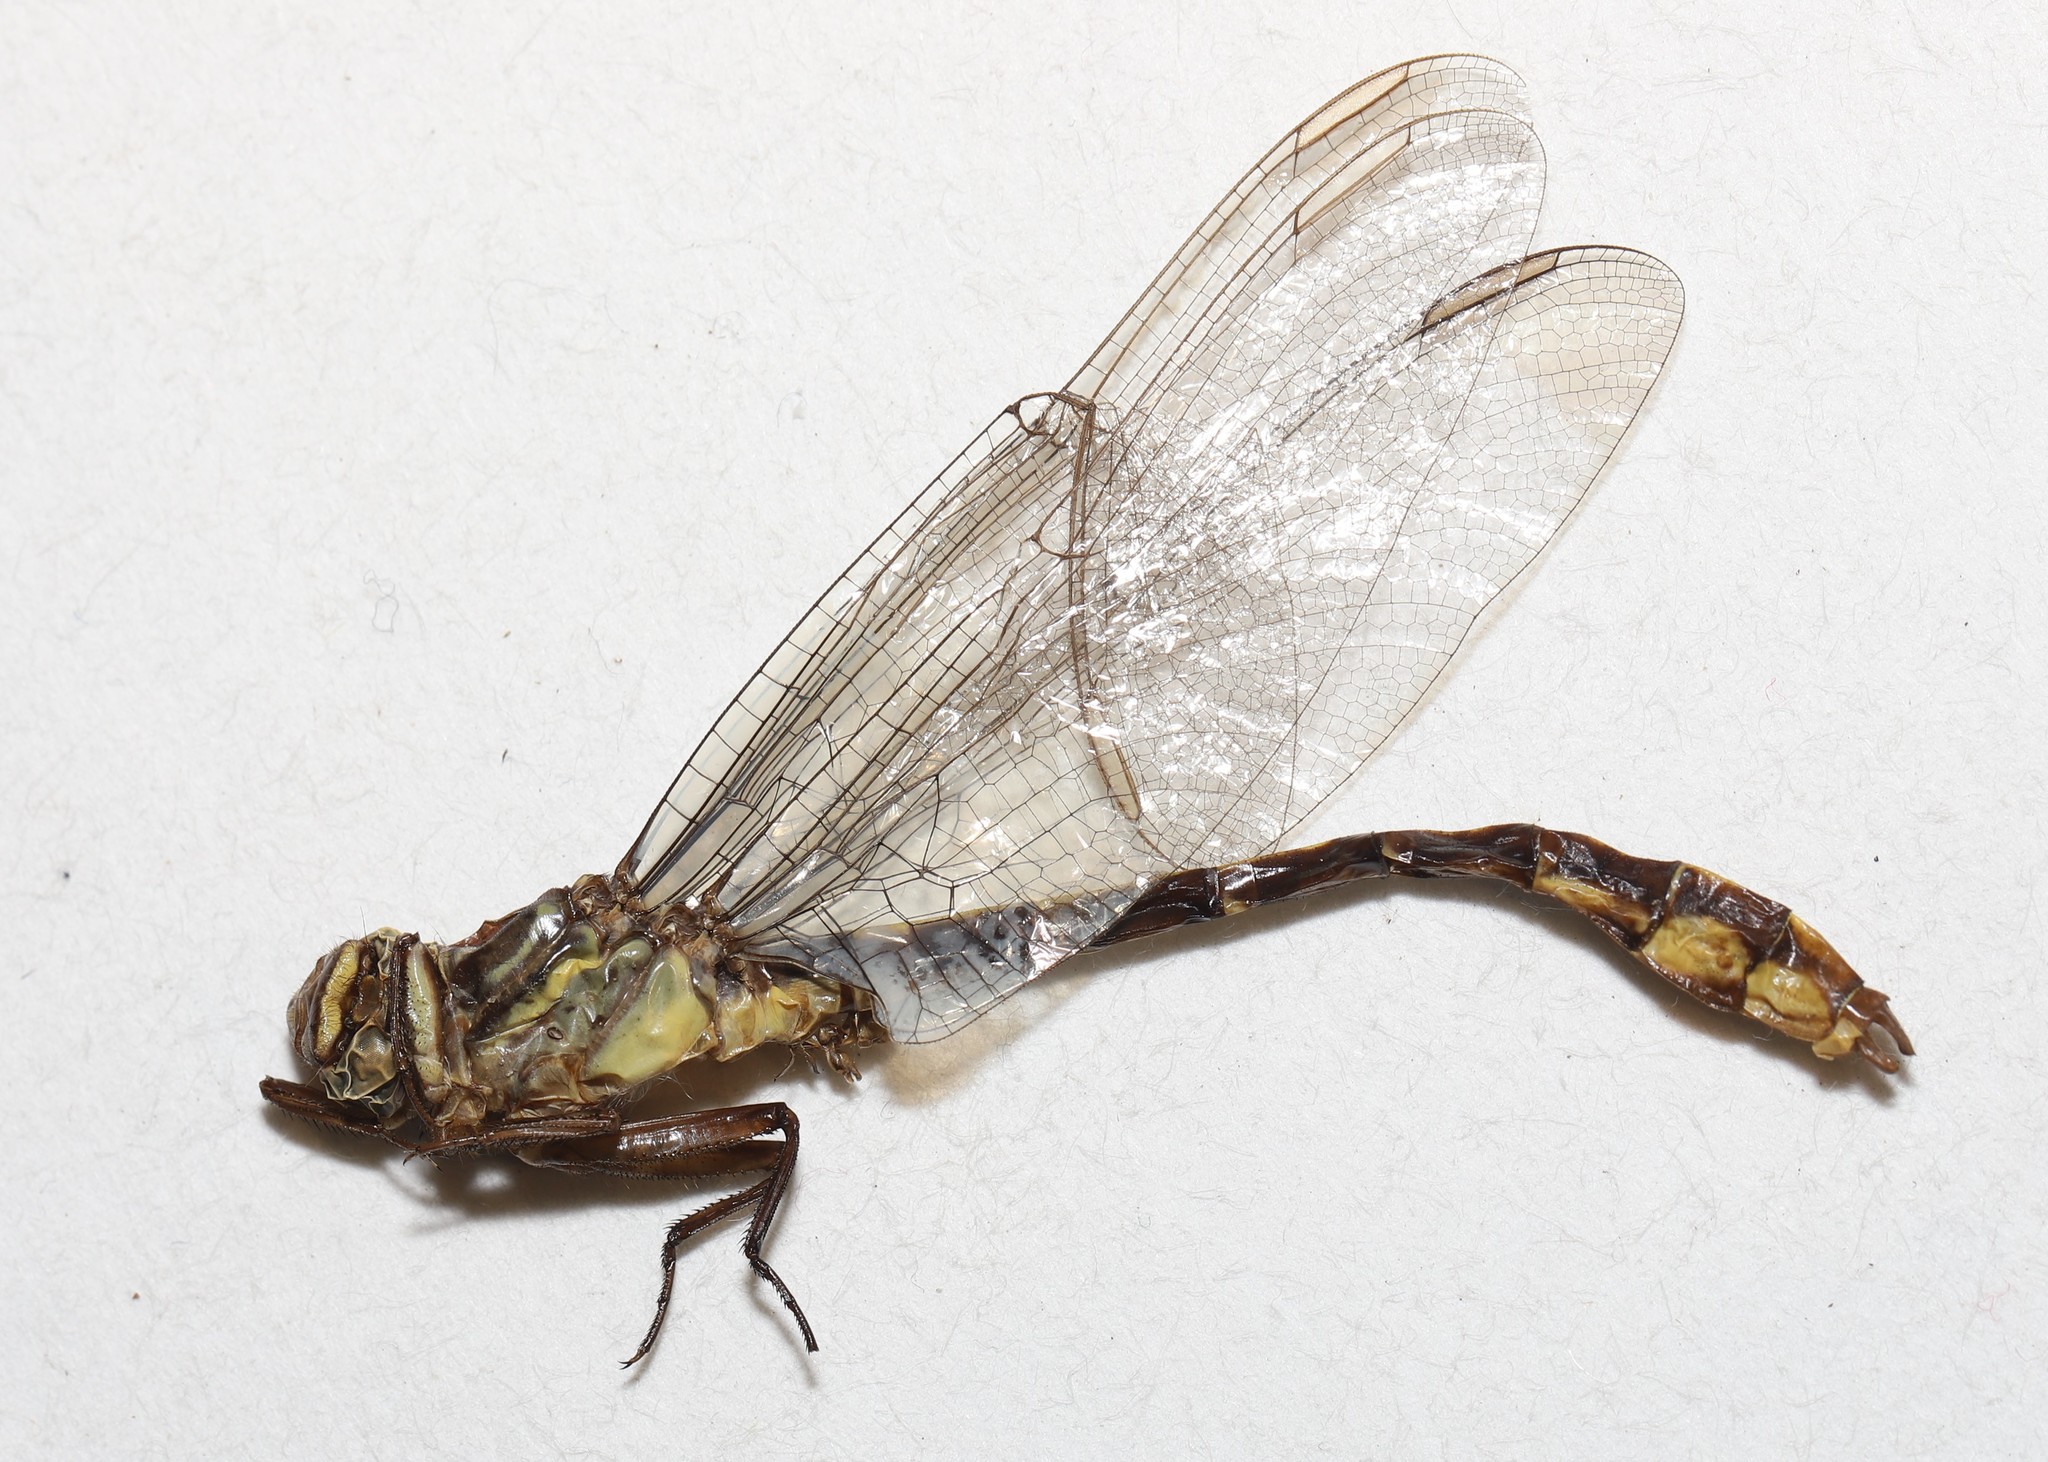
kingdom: Animalia
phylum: Arthropoda
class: Insecta
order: Odonata
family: Gomphidae
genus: Stylurus
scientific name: Stylurus amnicola
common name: Riverine clubtail
